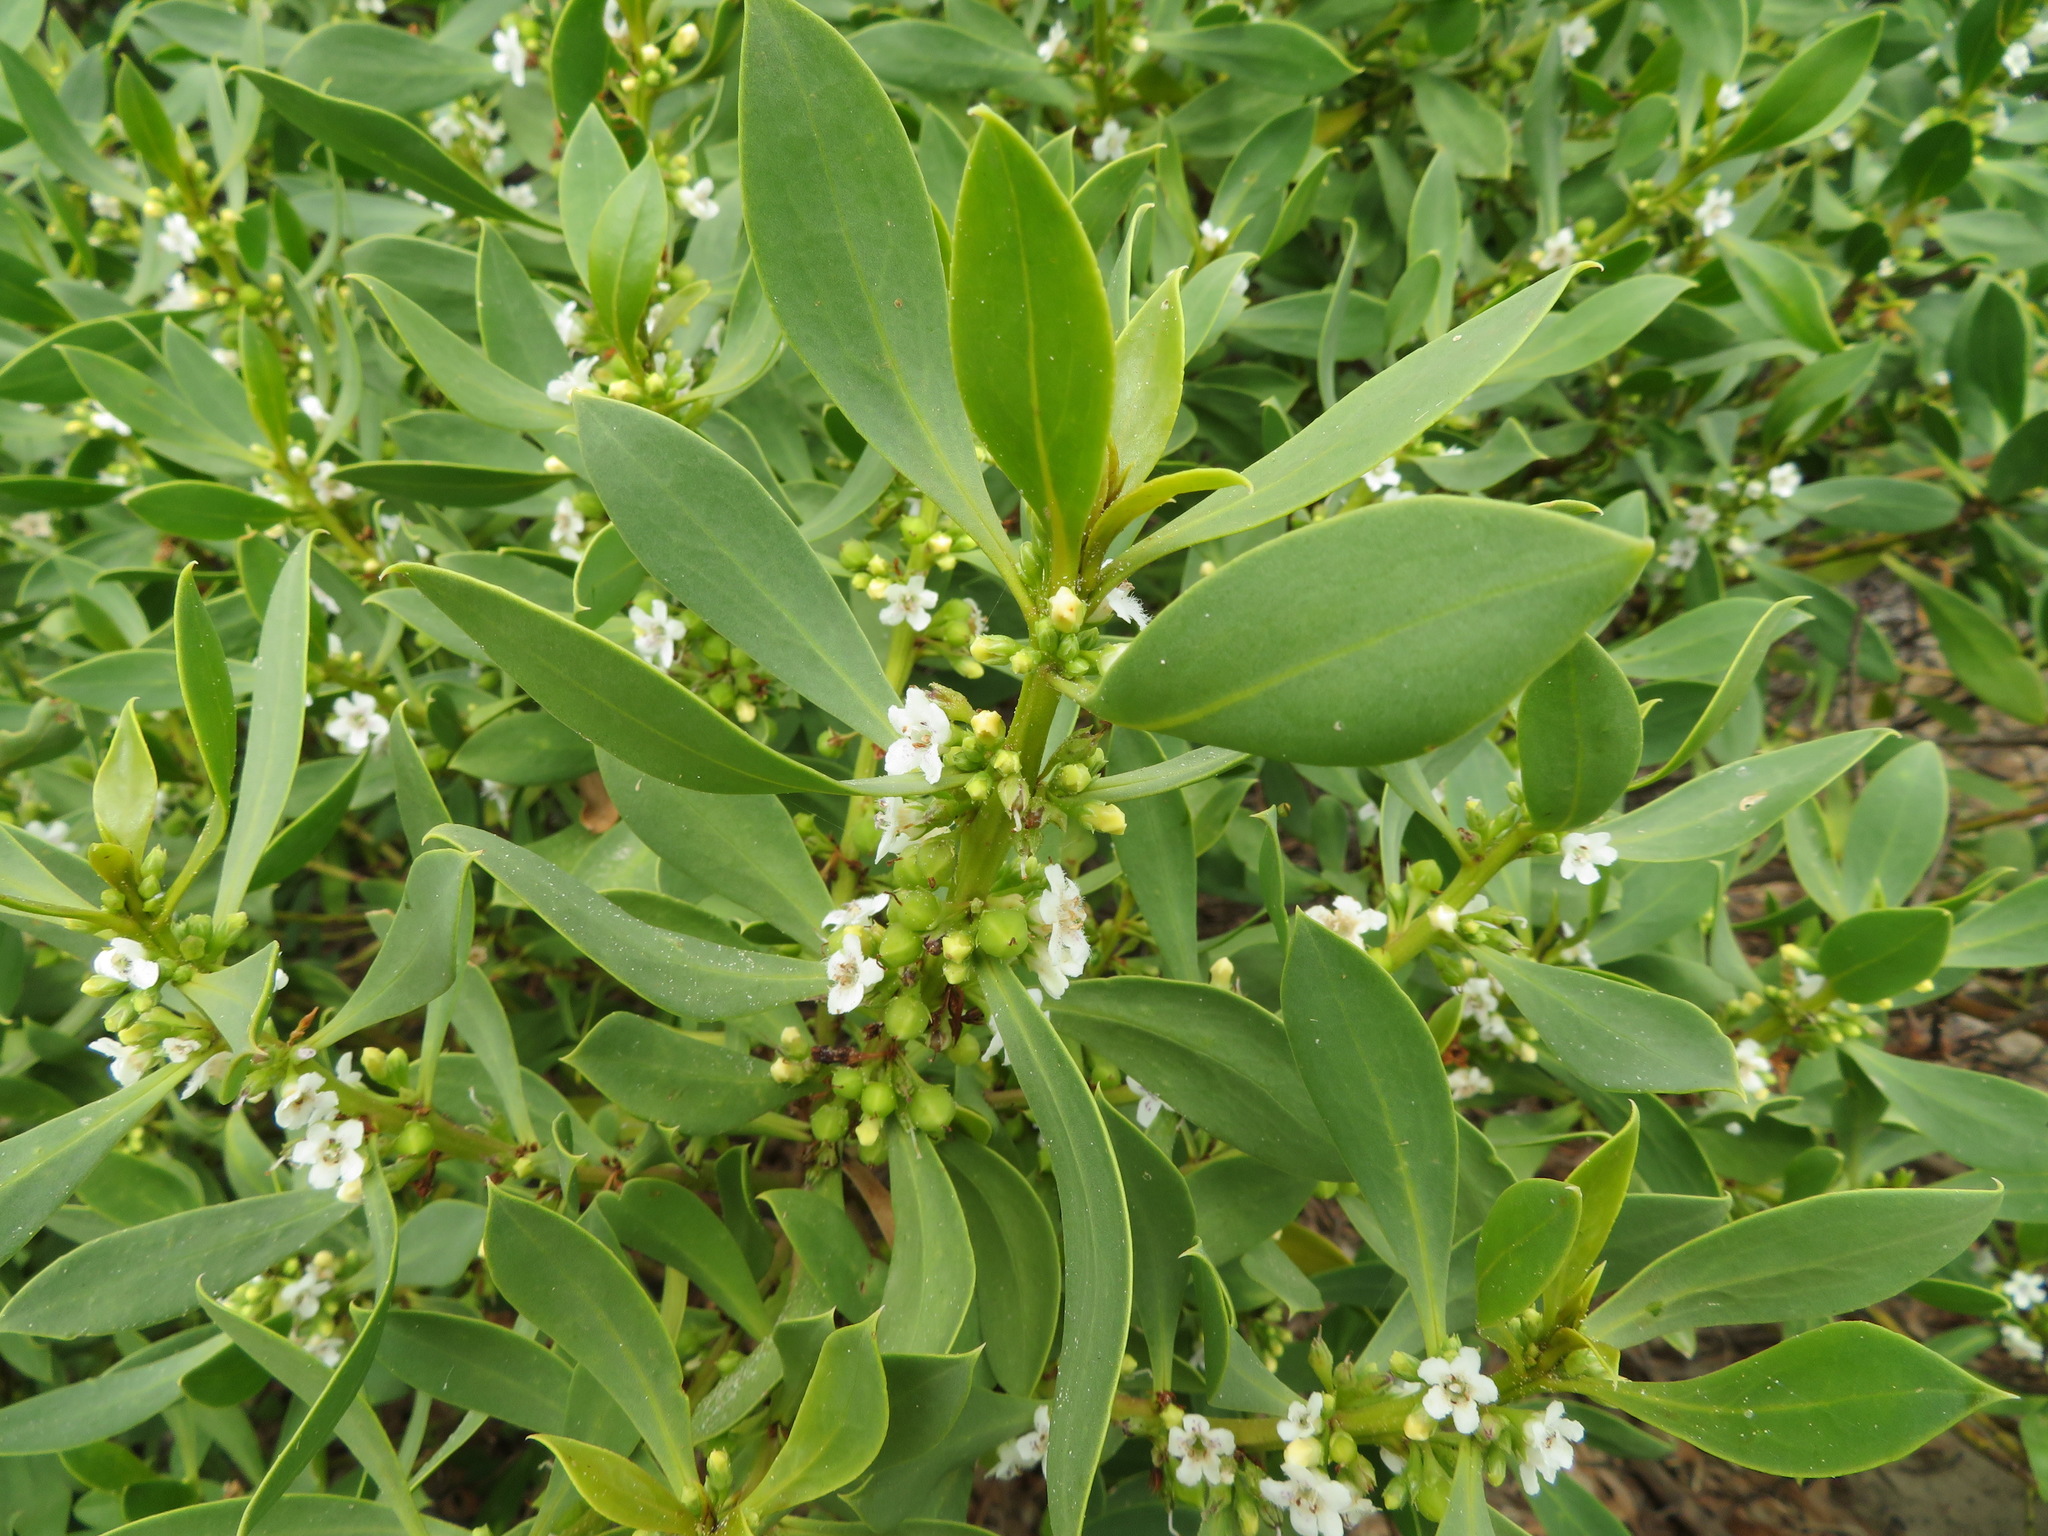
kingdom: Plantae
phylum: Tracheophyta
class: Magnoliopsida
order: Lamiales
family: Scrophulariaceae
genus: Myoporum
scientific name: Myoporum insulare
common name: Common boobialla
